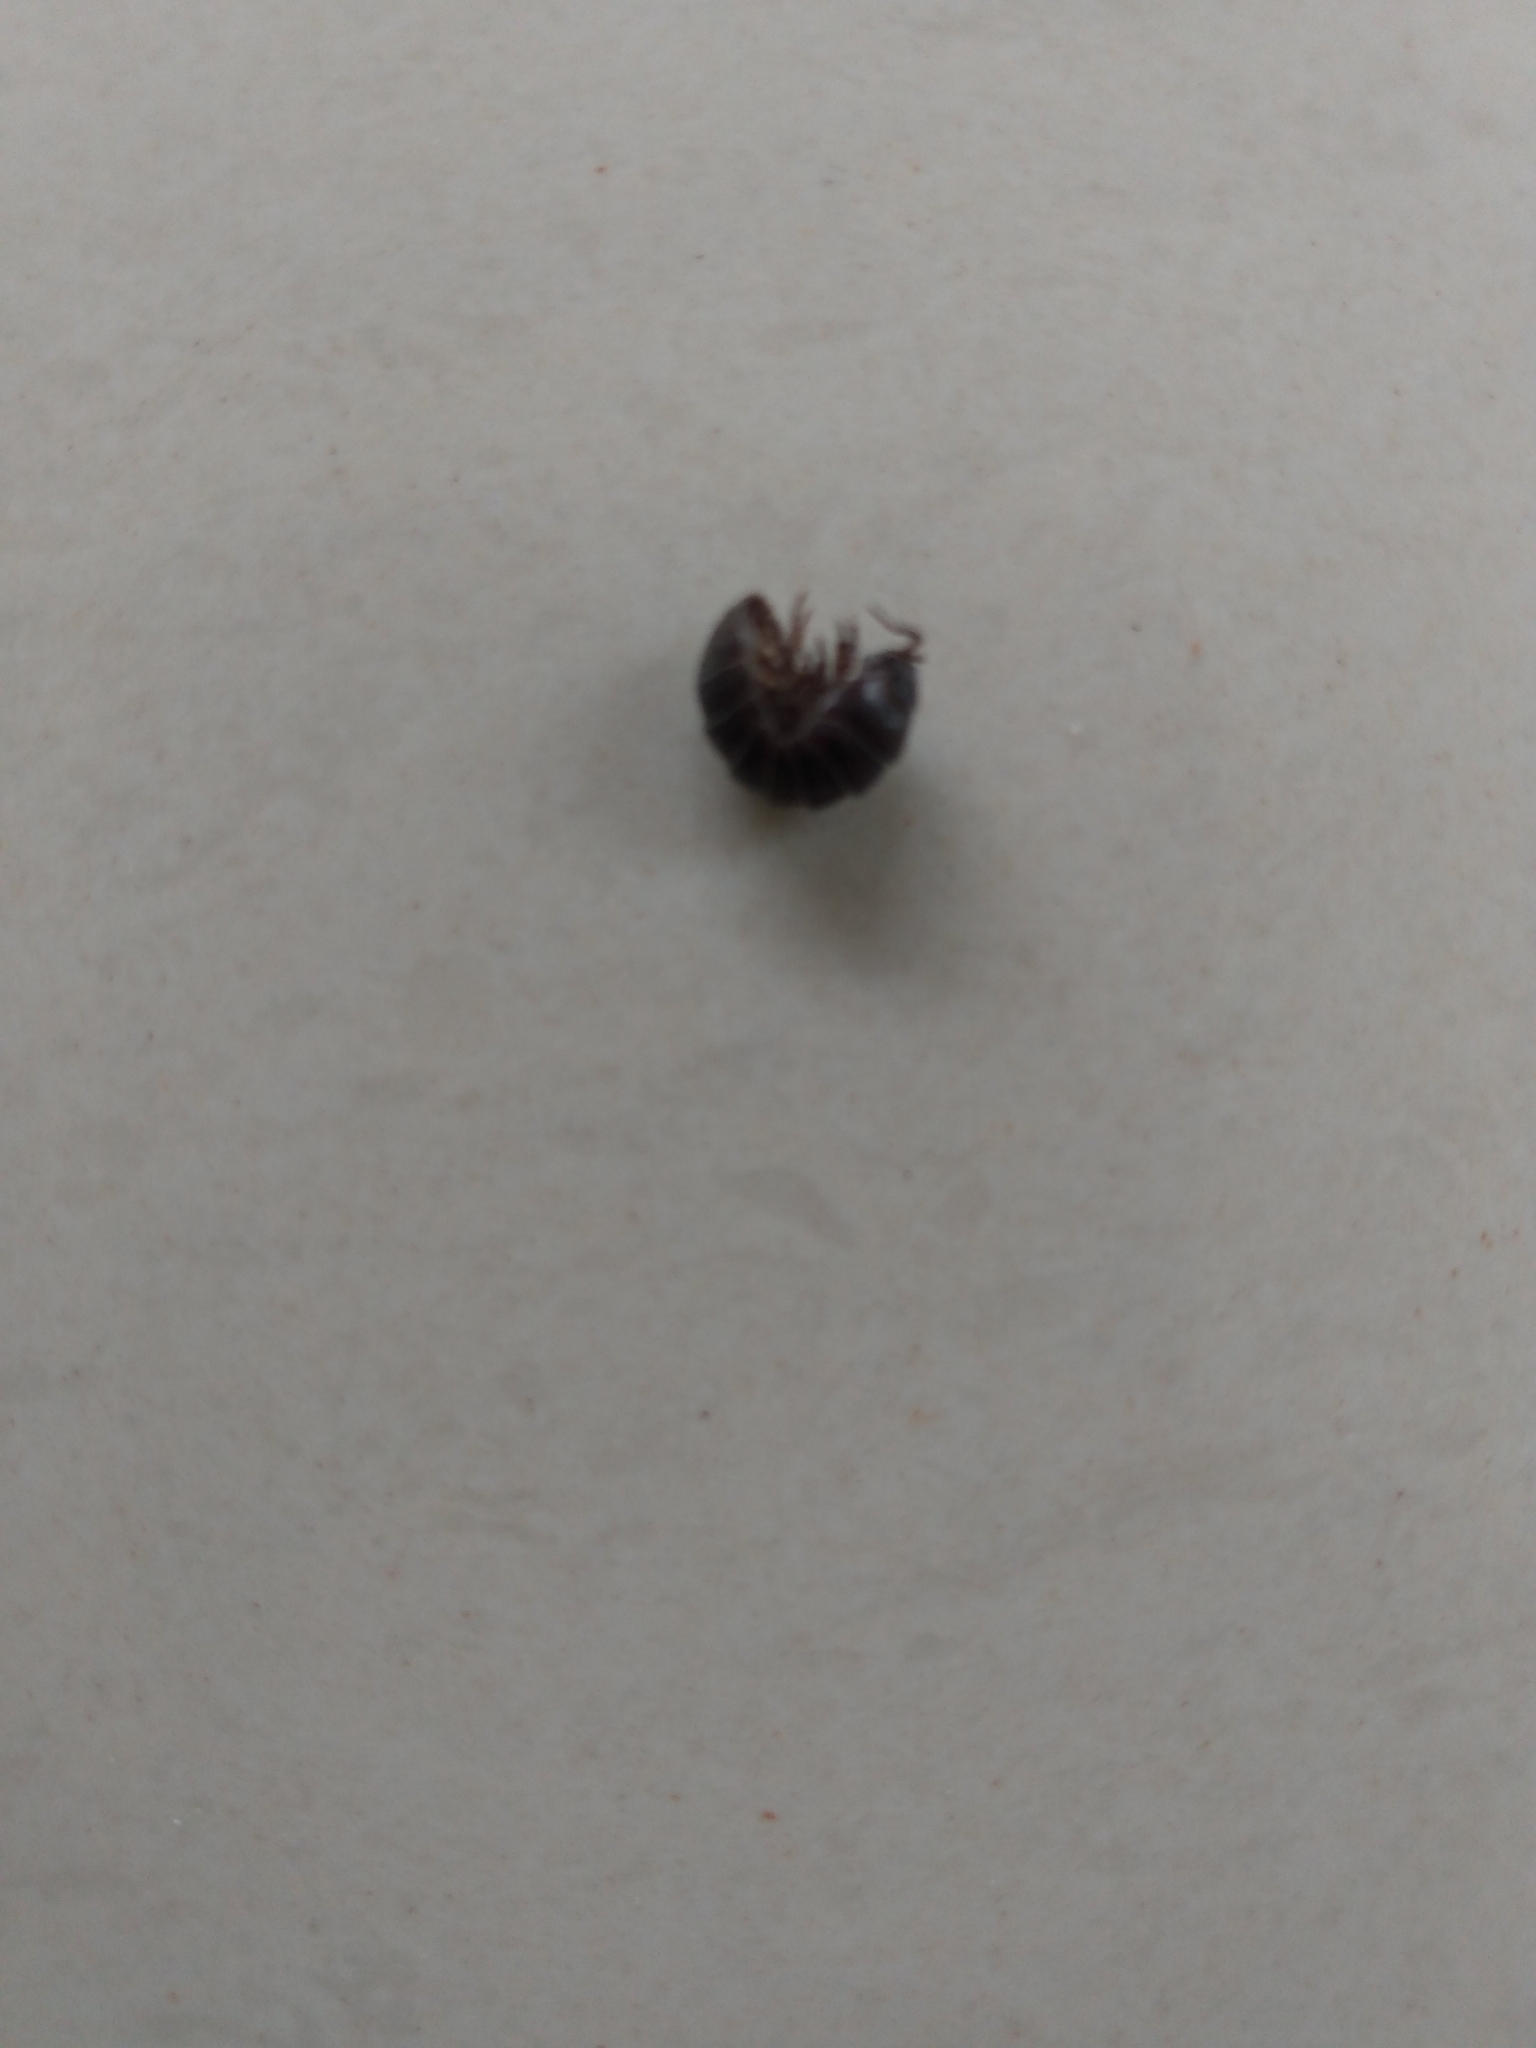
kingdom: Animalia
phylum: Arthropoda
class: Malacostraca
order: Isopoda
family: Armadillidiidae
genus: Armadillidium
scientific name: Armadillidium vulgare
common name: Common pill woodlouse
